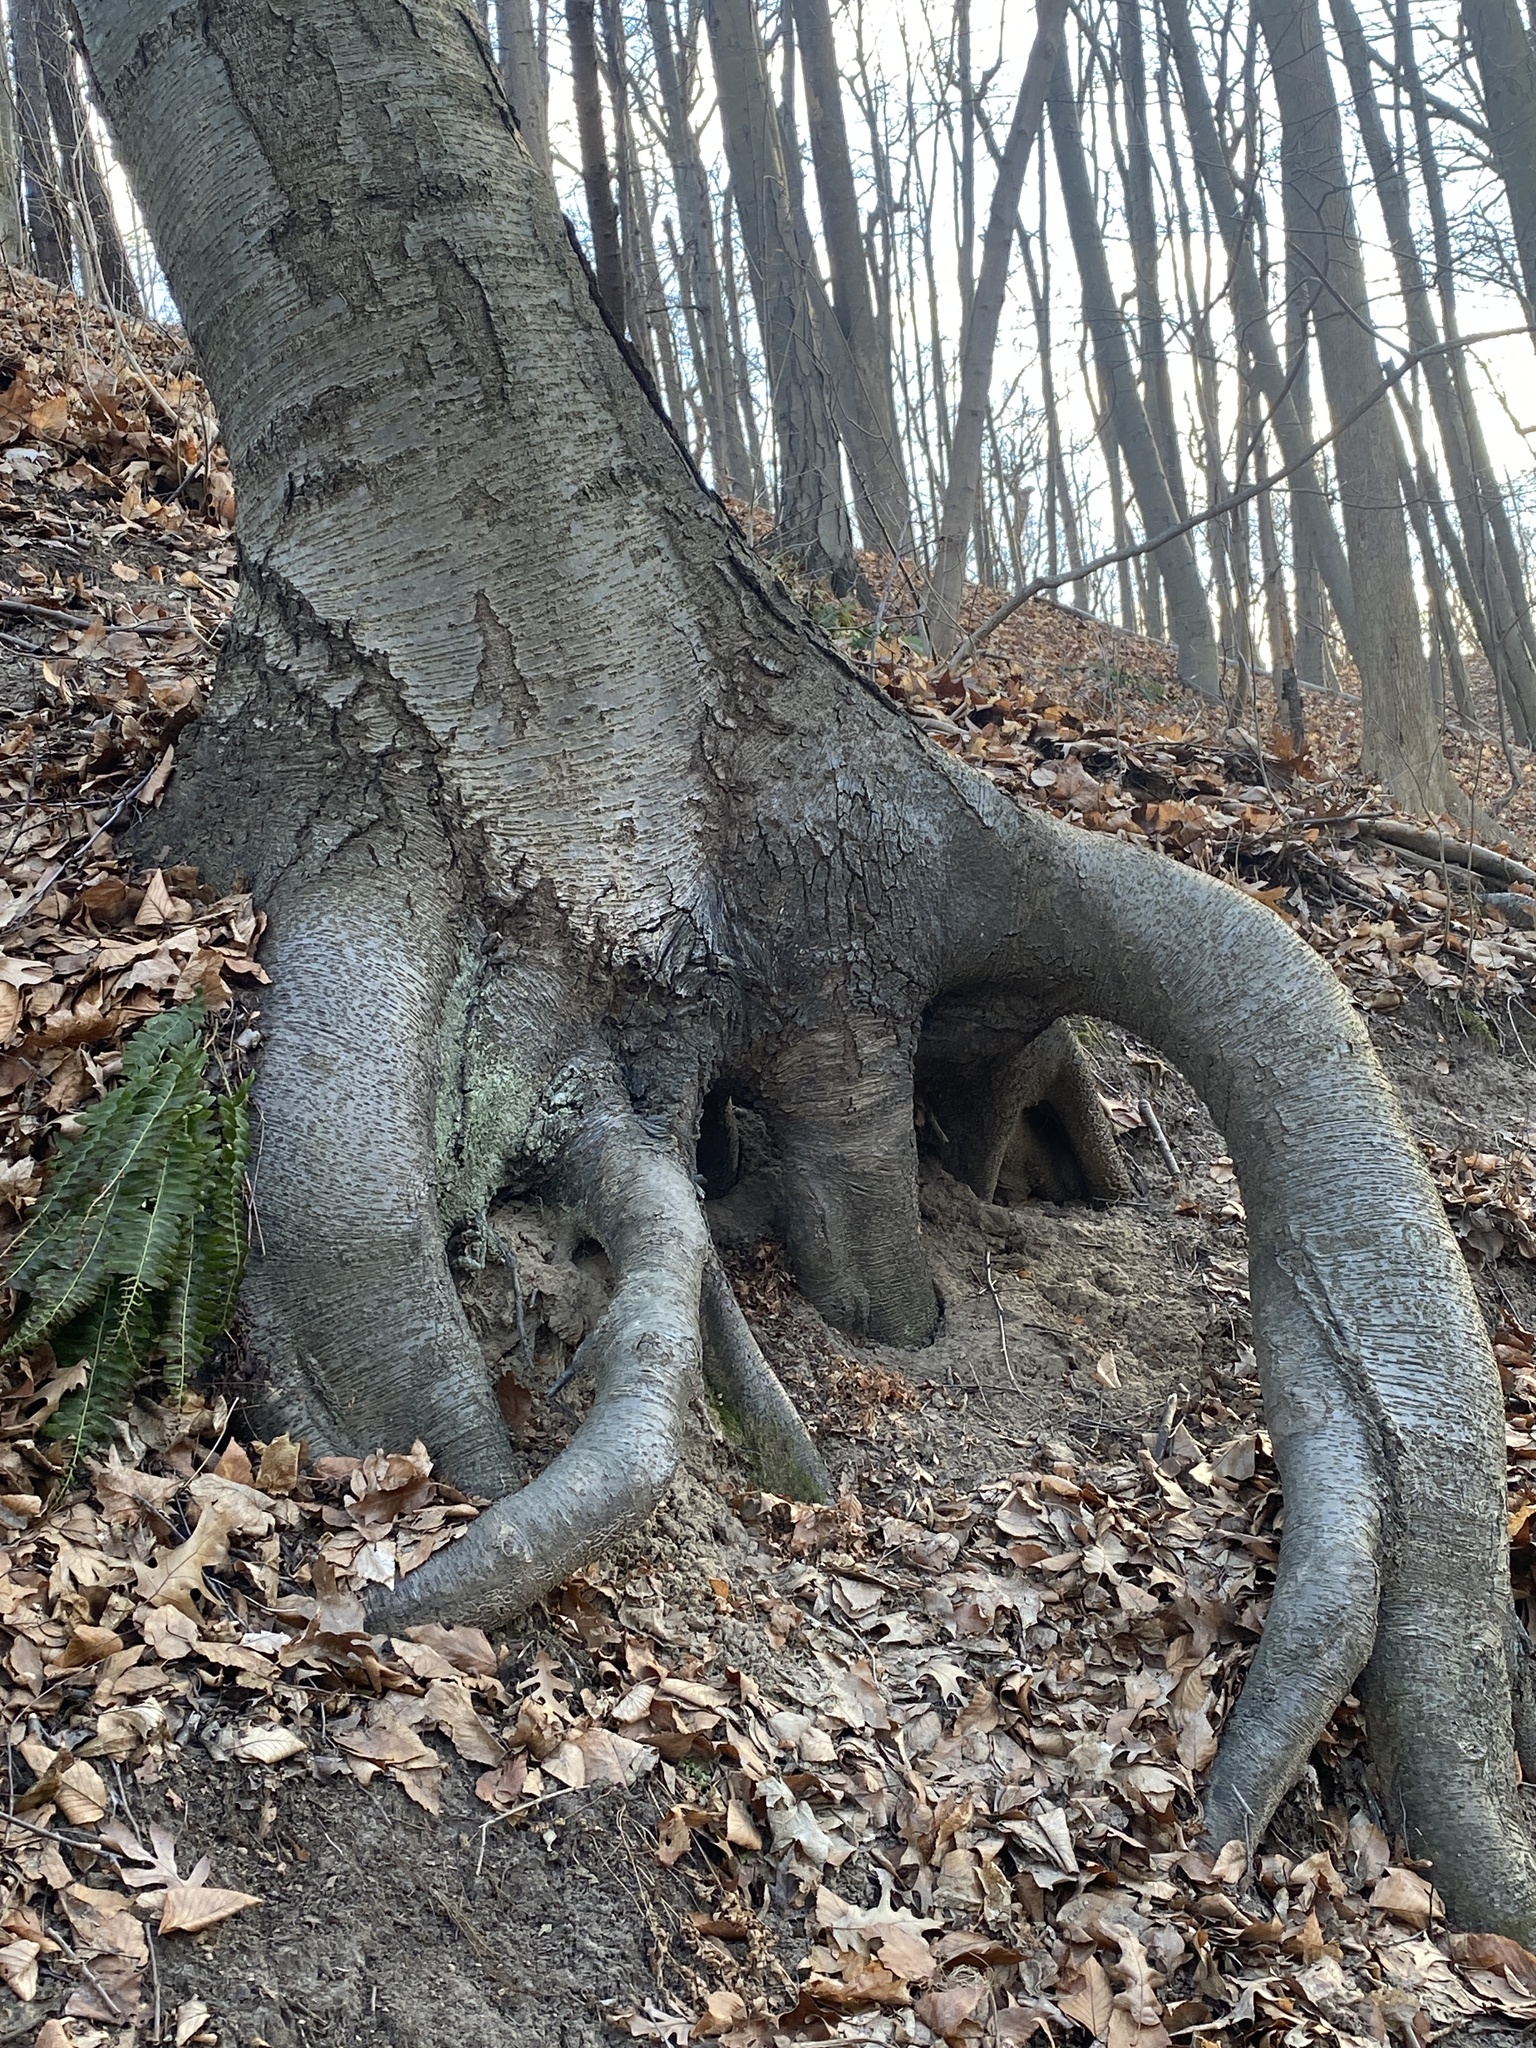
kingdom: Plantae
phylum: Tracheophyta
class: Magnoliopsida
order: Fagales
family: Betulaceae
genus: Betula
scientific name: Betula lenta
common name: Black birch
